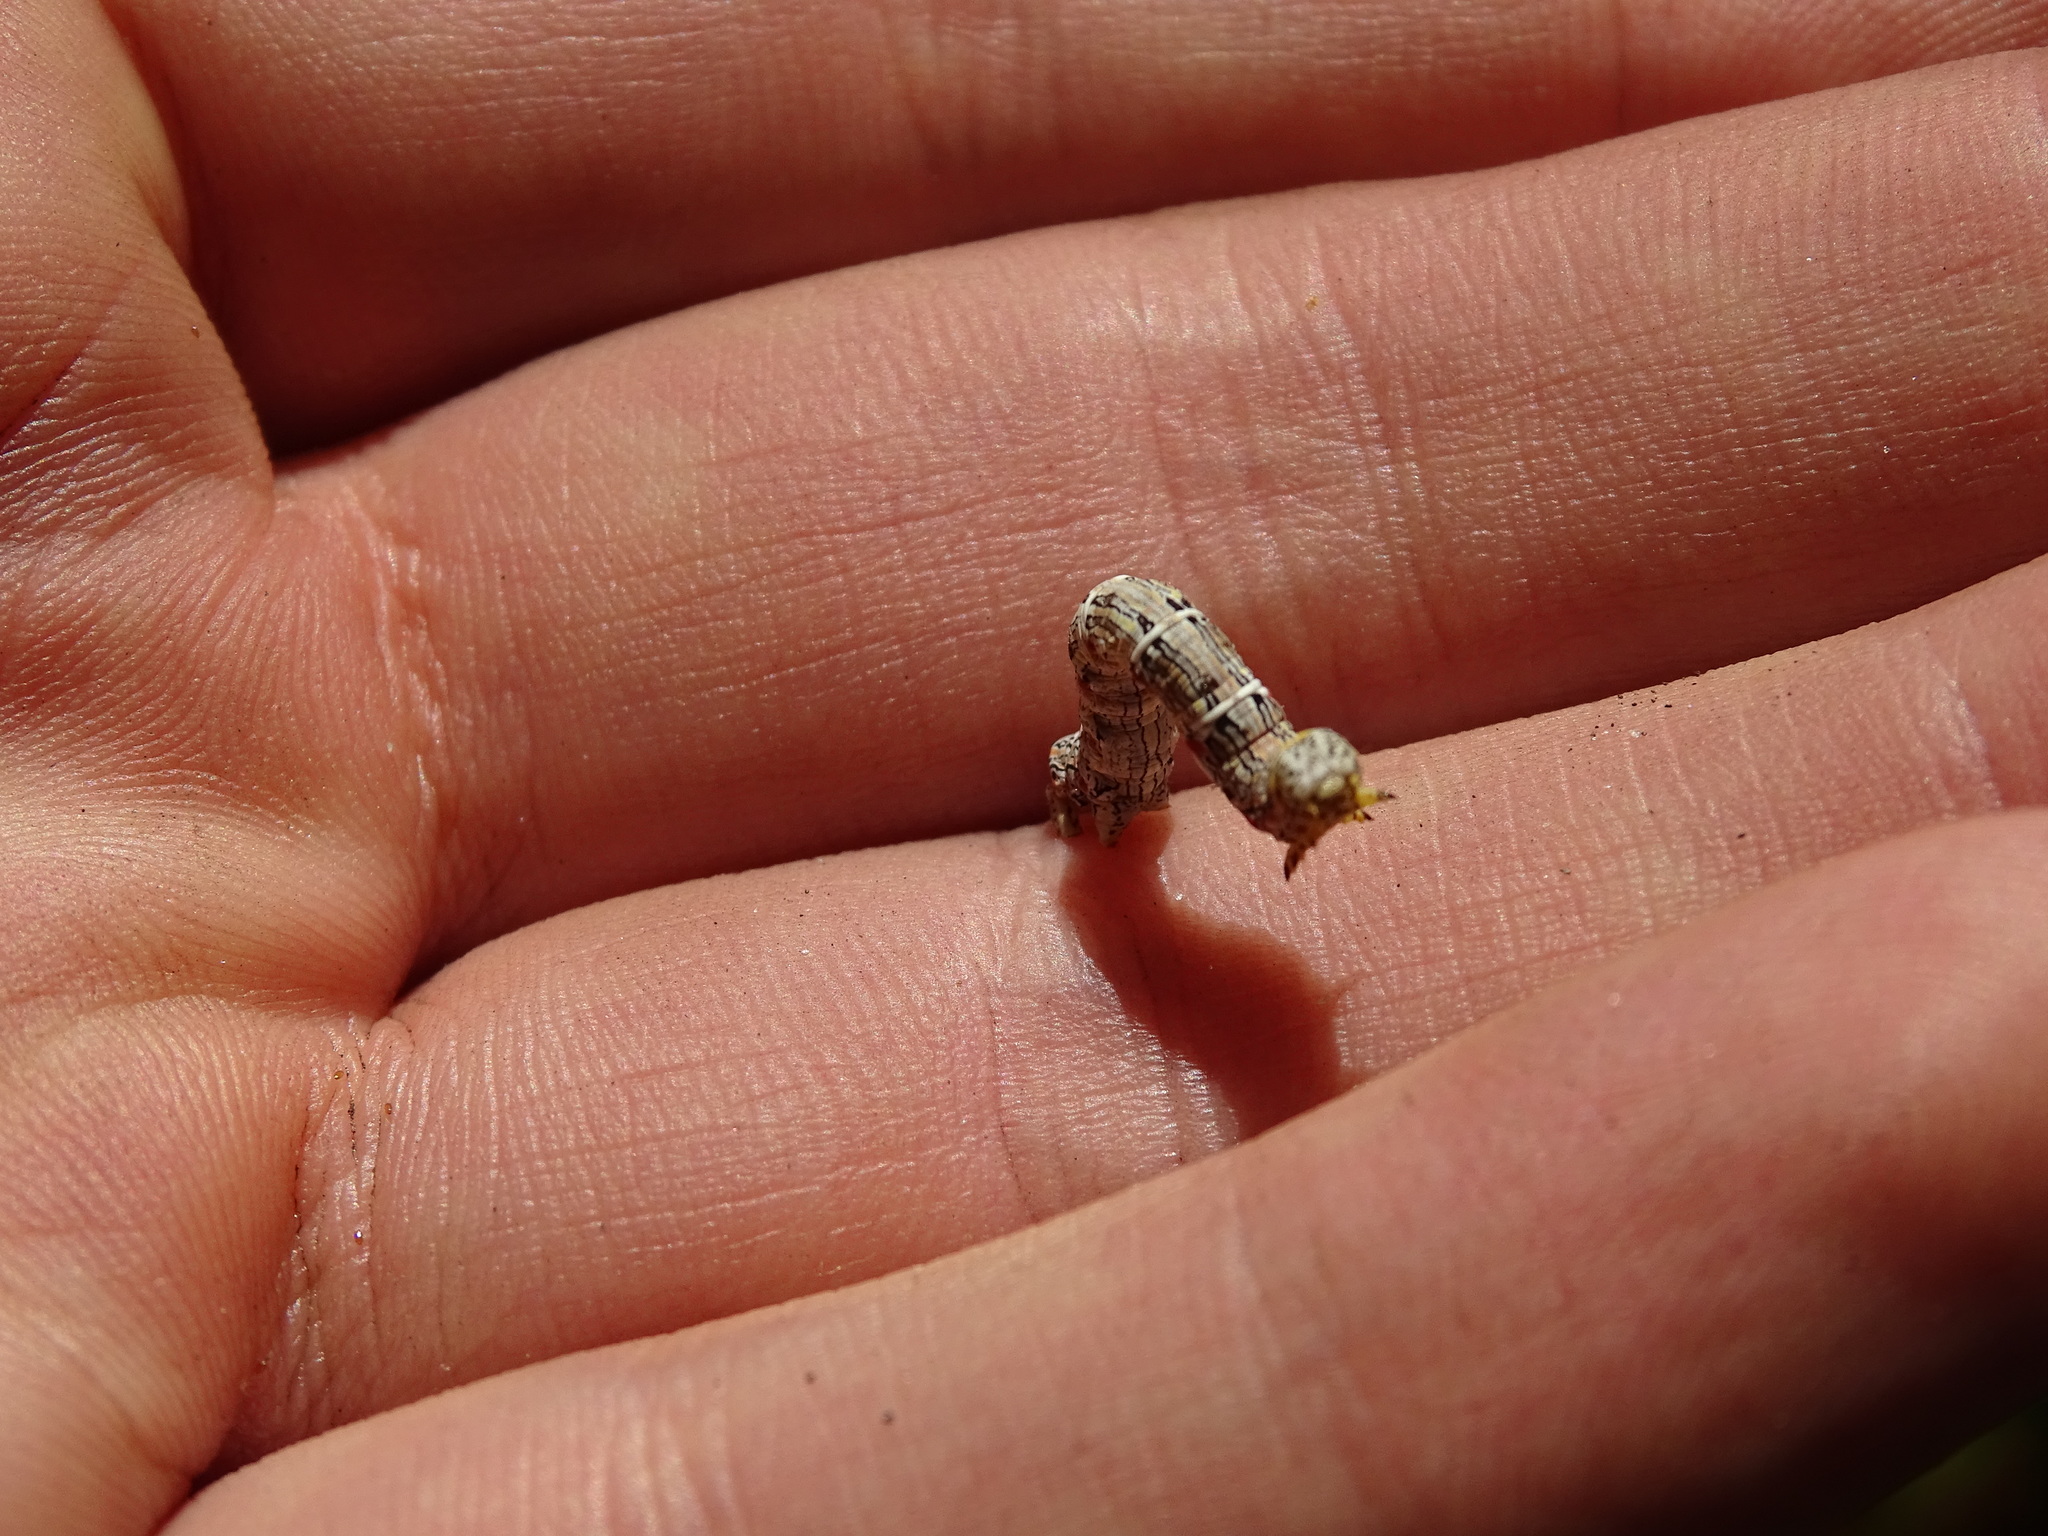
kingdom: Animalia
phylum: Arthropoda
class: Insecta
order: Lepidoptera
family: Geometridae
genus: Lycia
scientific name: Lycia ypsilon
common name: Wooly gray
